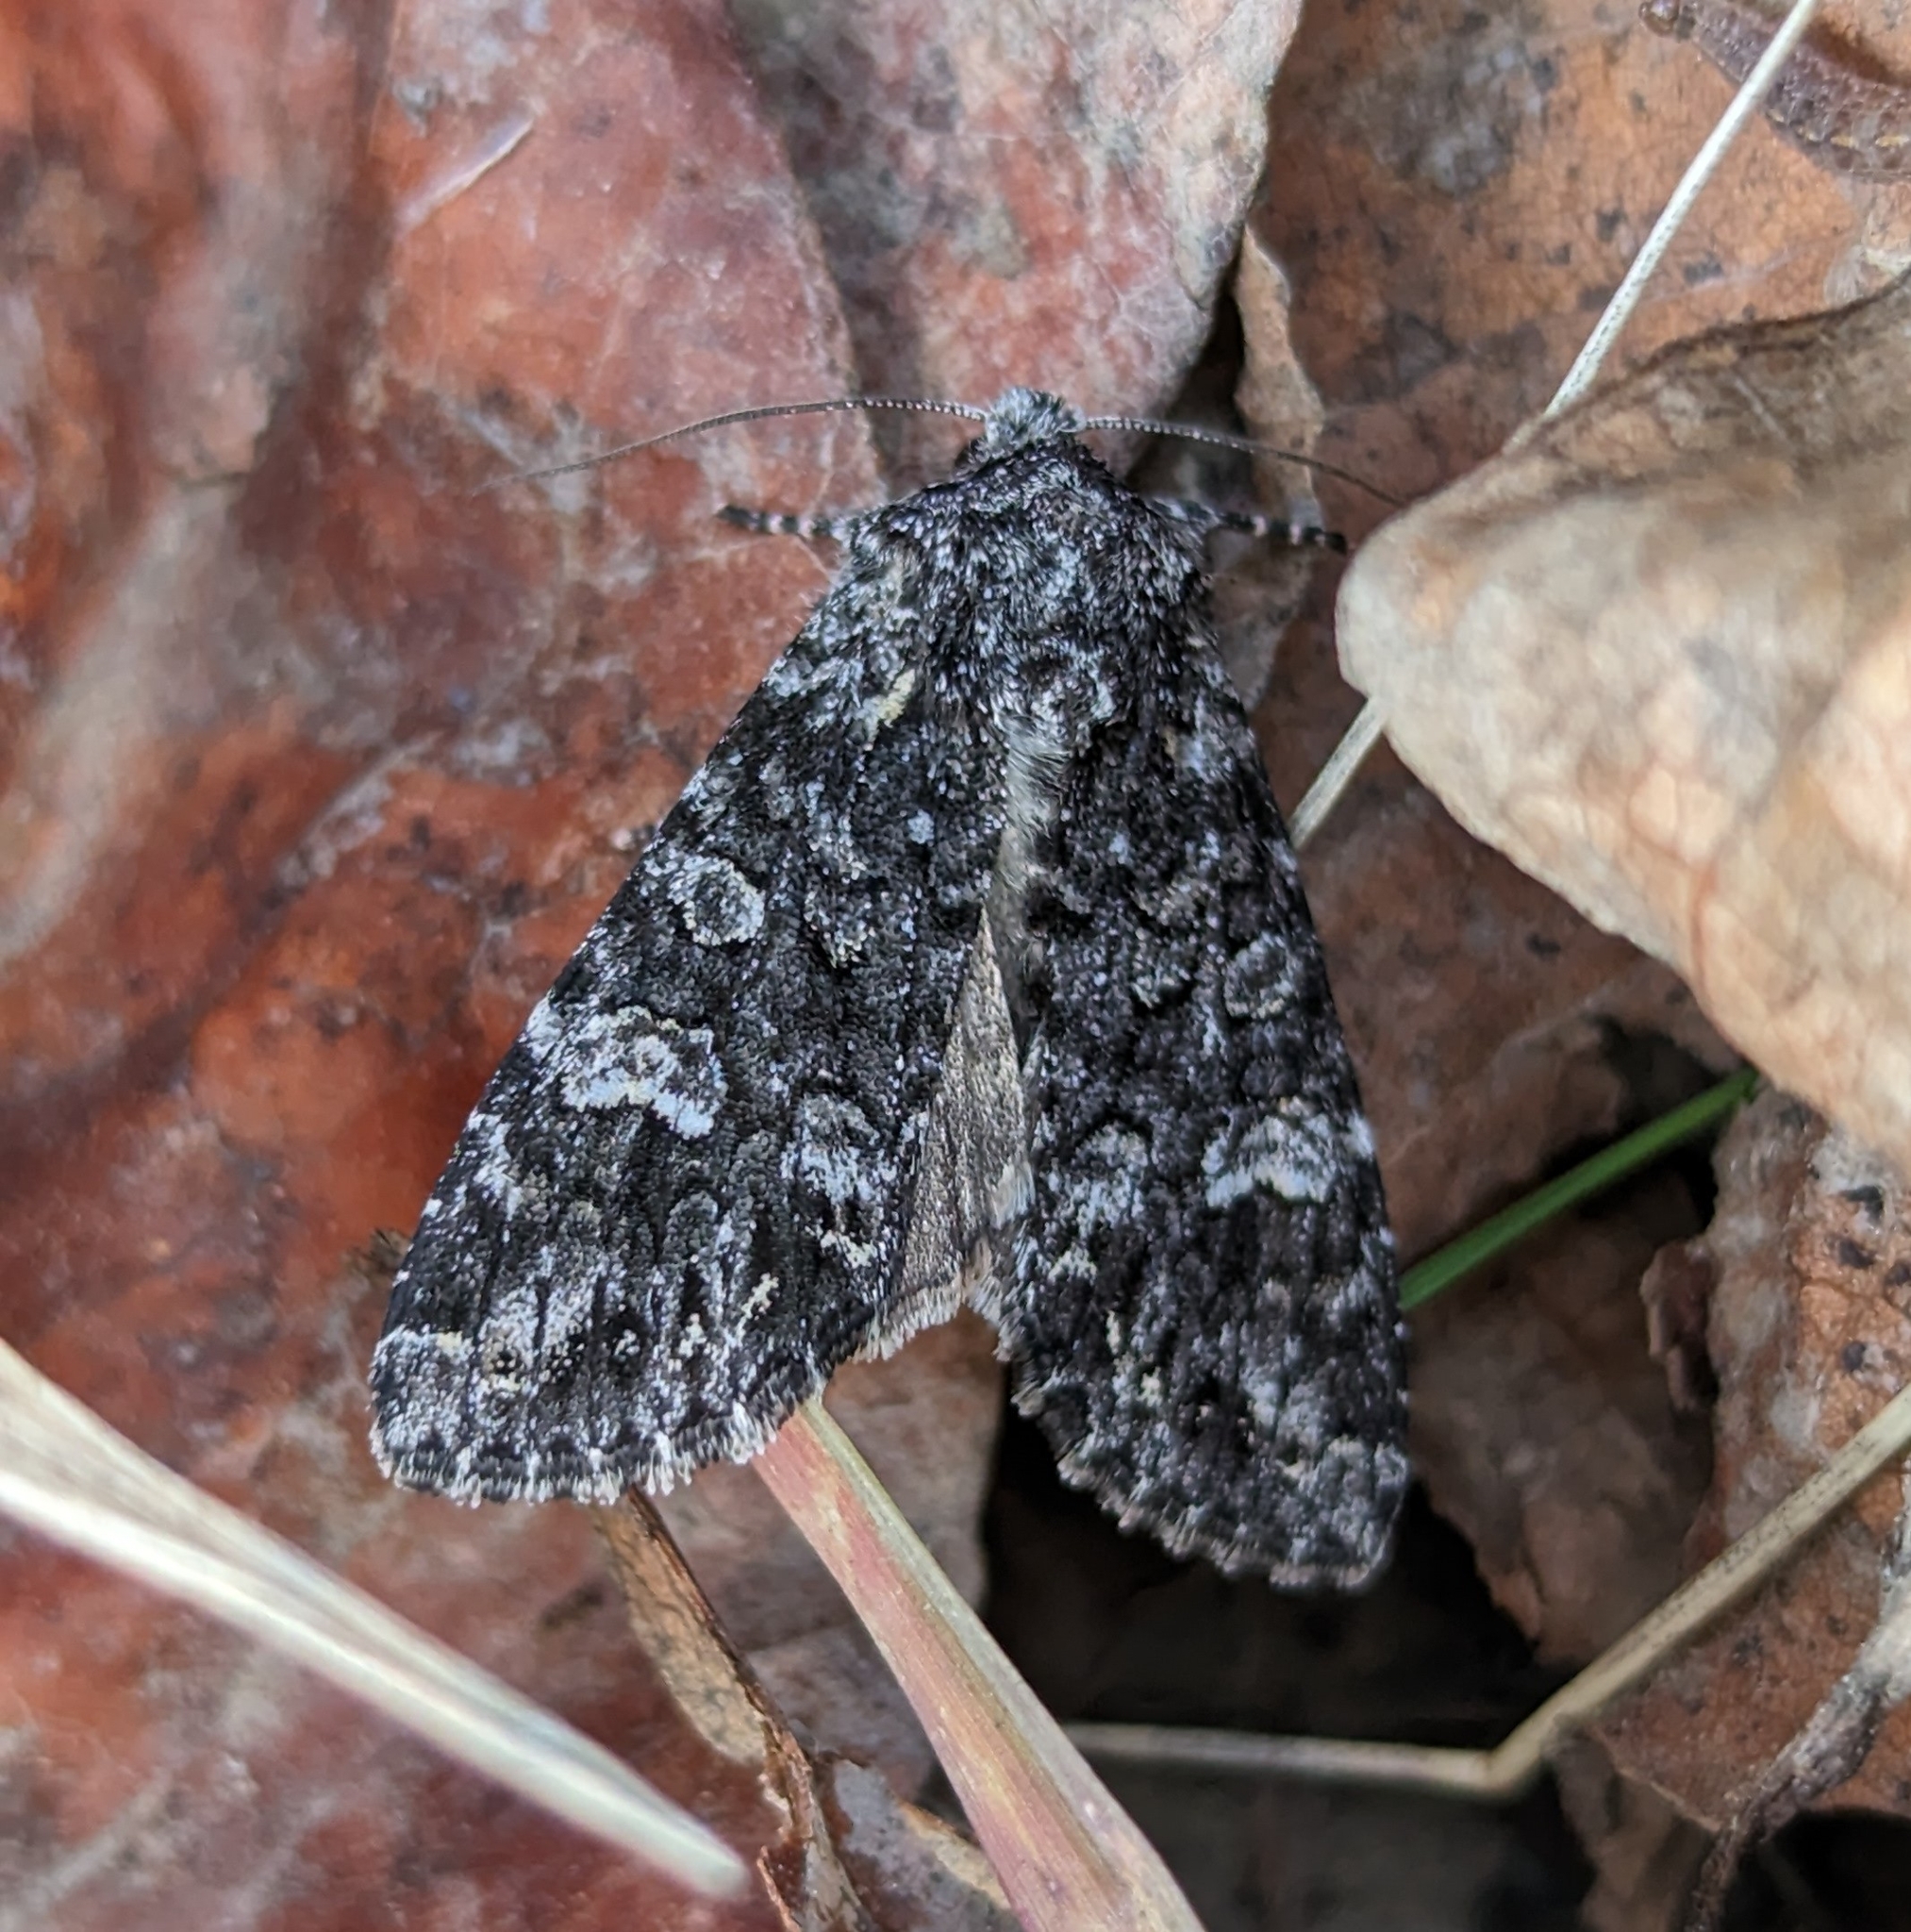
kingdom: Animalia
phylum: Arthropoda
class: Insecta
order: Lepidoptera
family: Noctuidae
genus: Papestra
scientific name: Papestra cristifera
